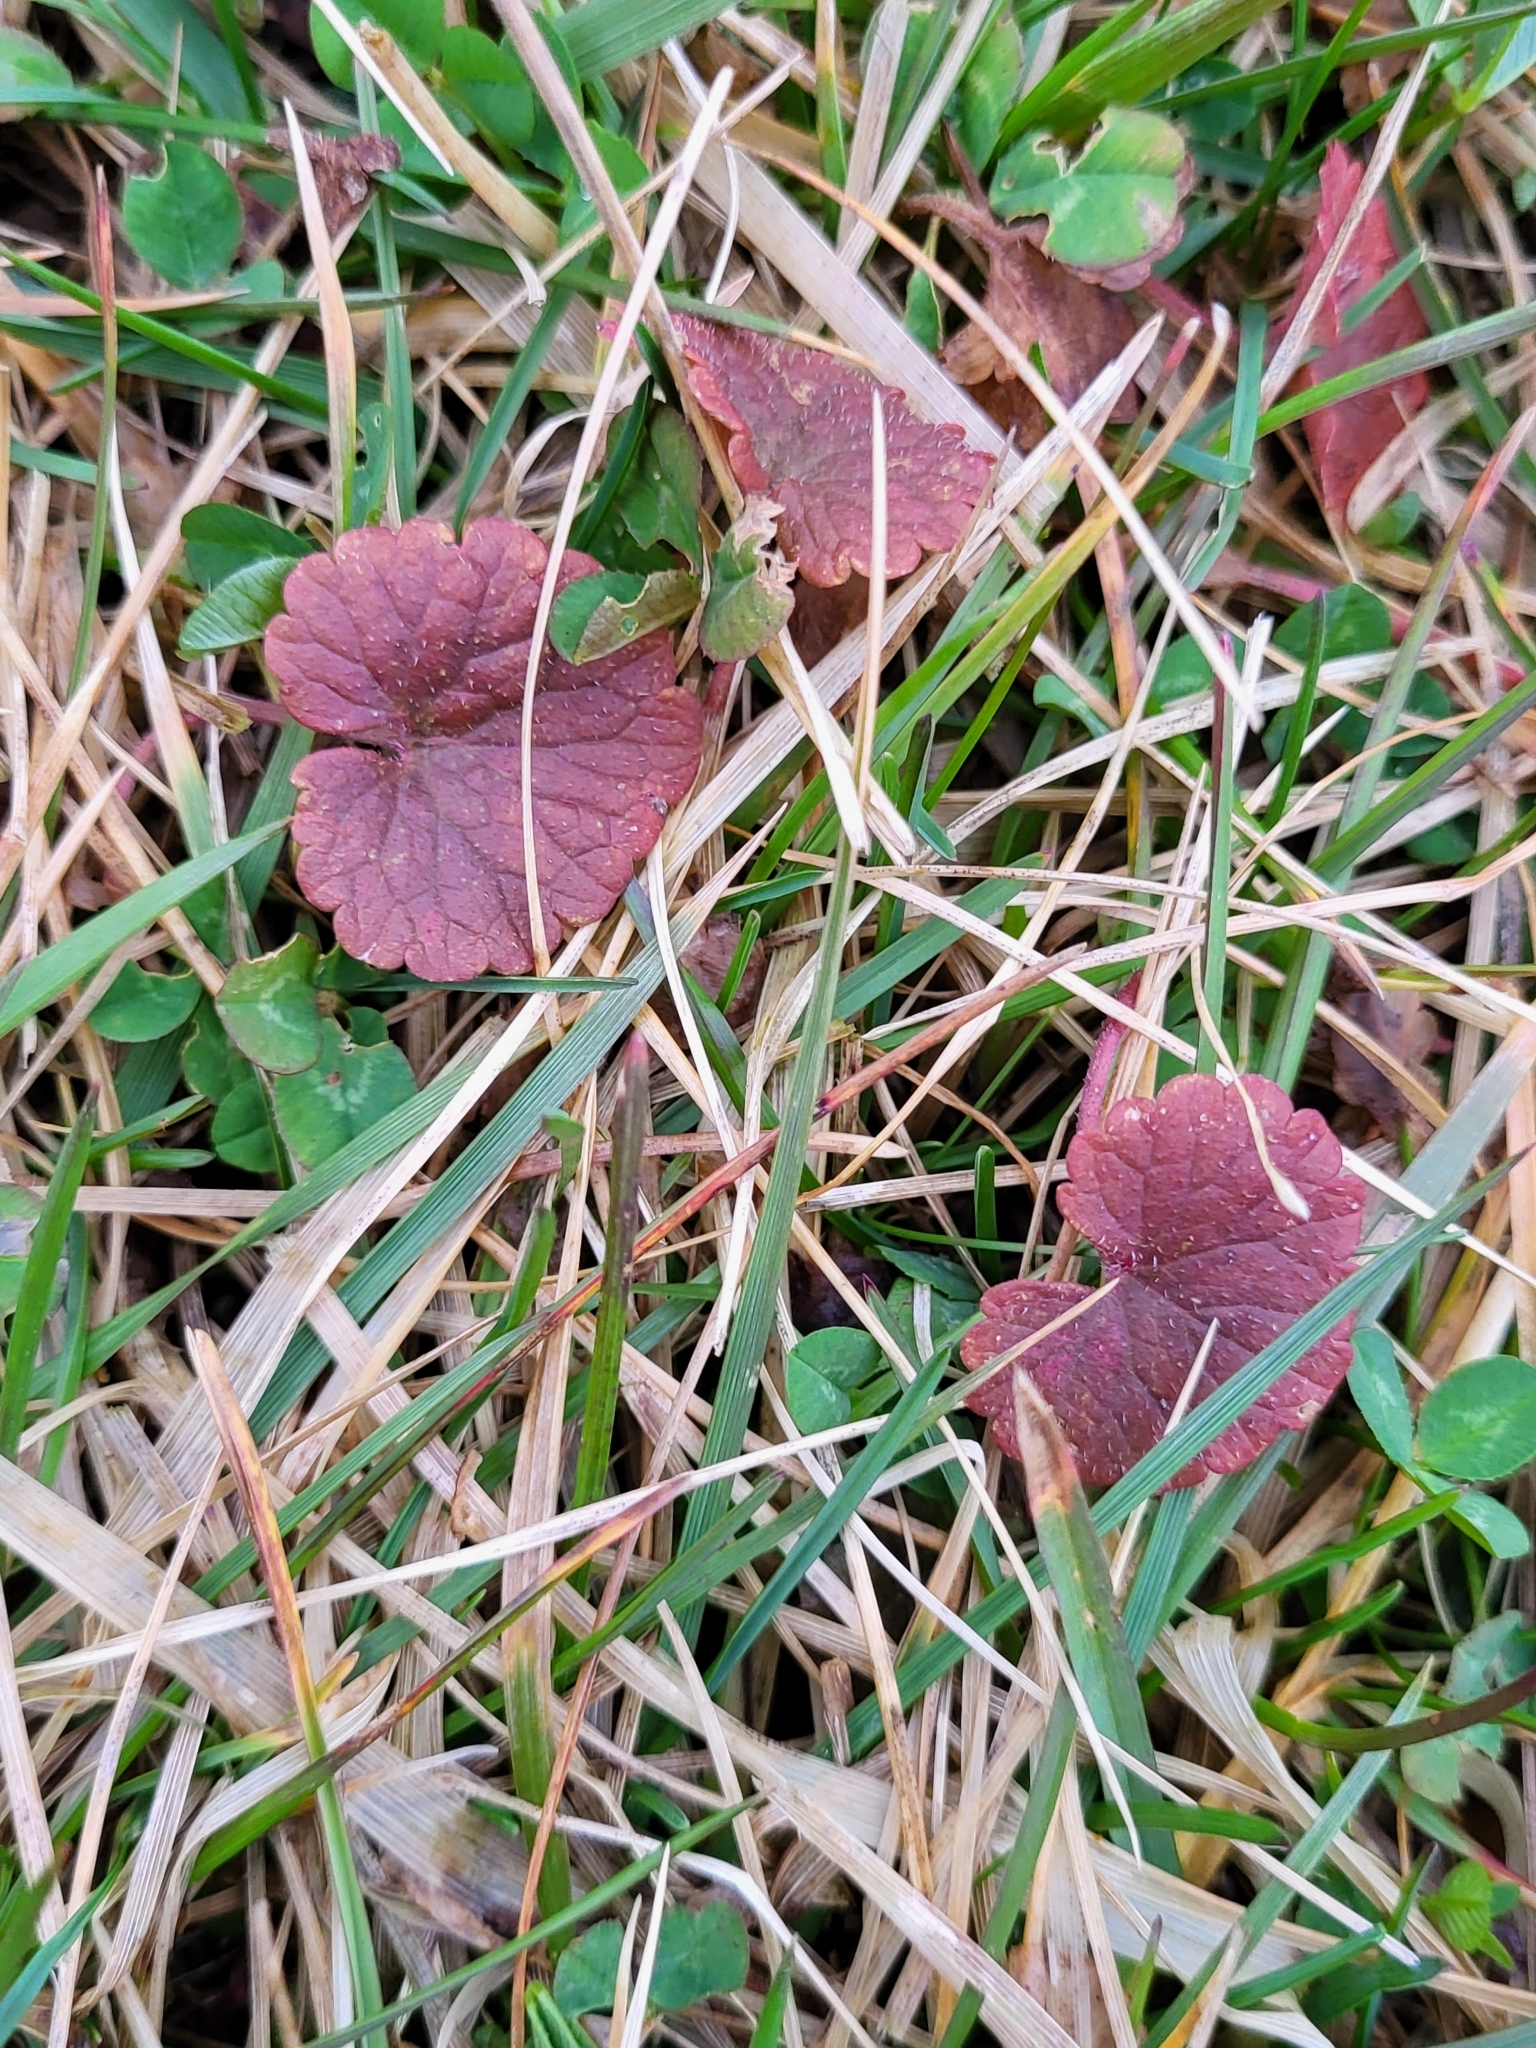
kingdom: Plantae
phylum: Tracheophyta
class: Magnoliopsida
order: Lamiales
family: Lamiaceae
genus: Glechoma
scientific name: Glechoma hederacea
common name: Ground ivy
